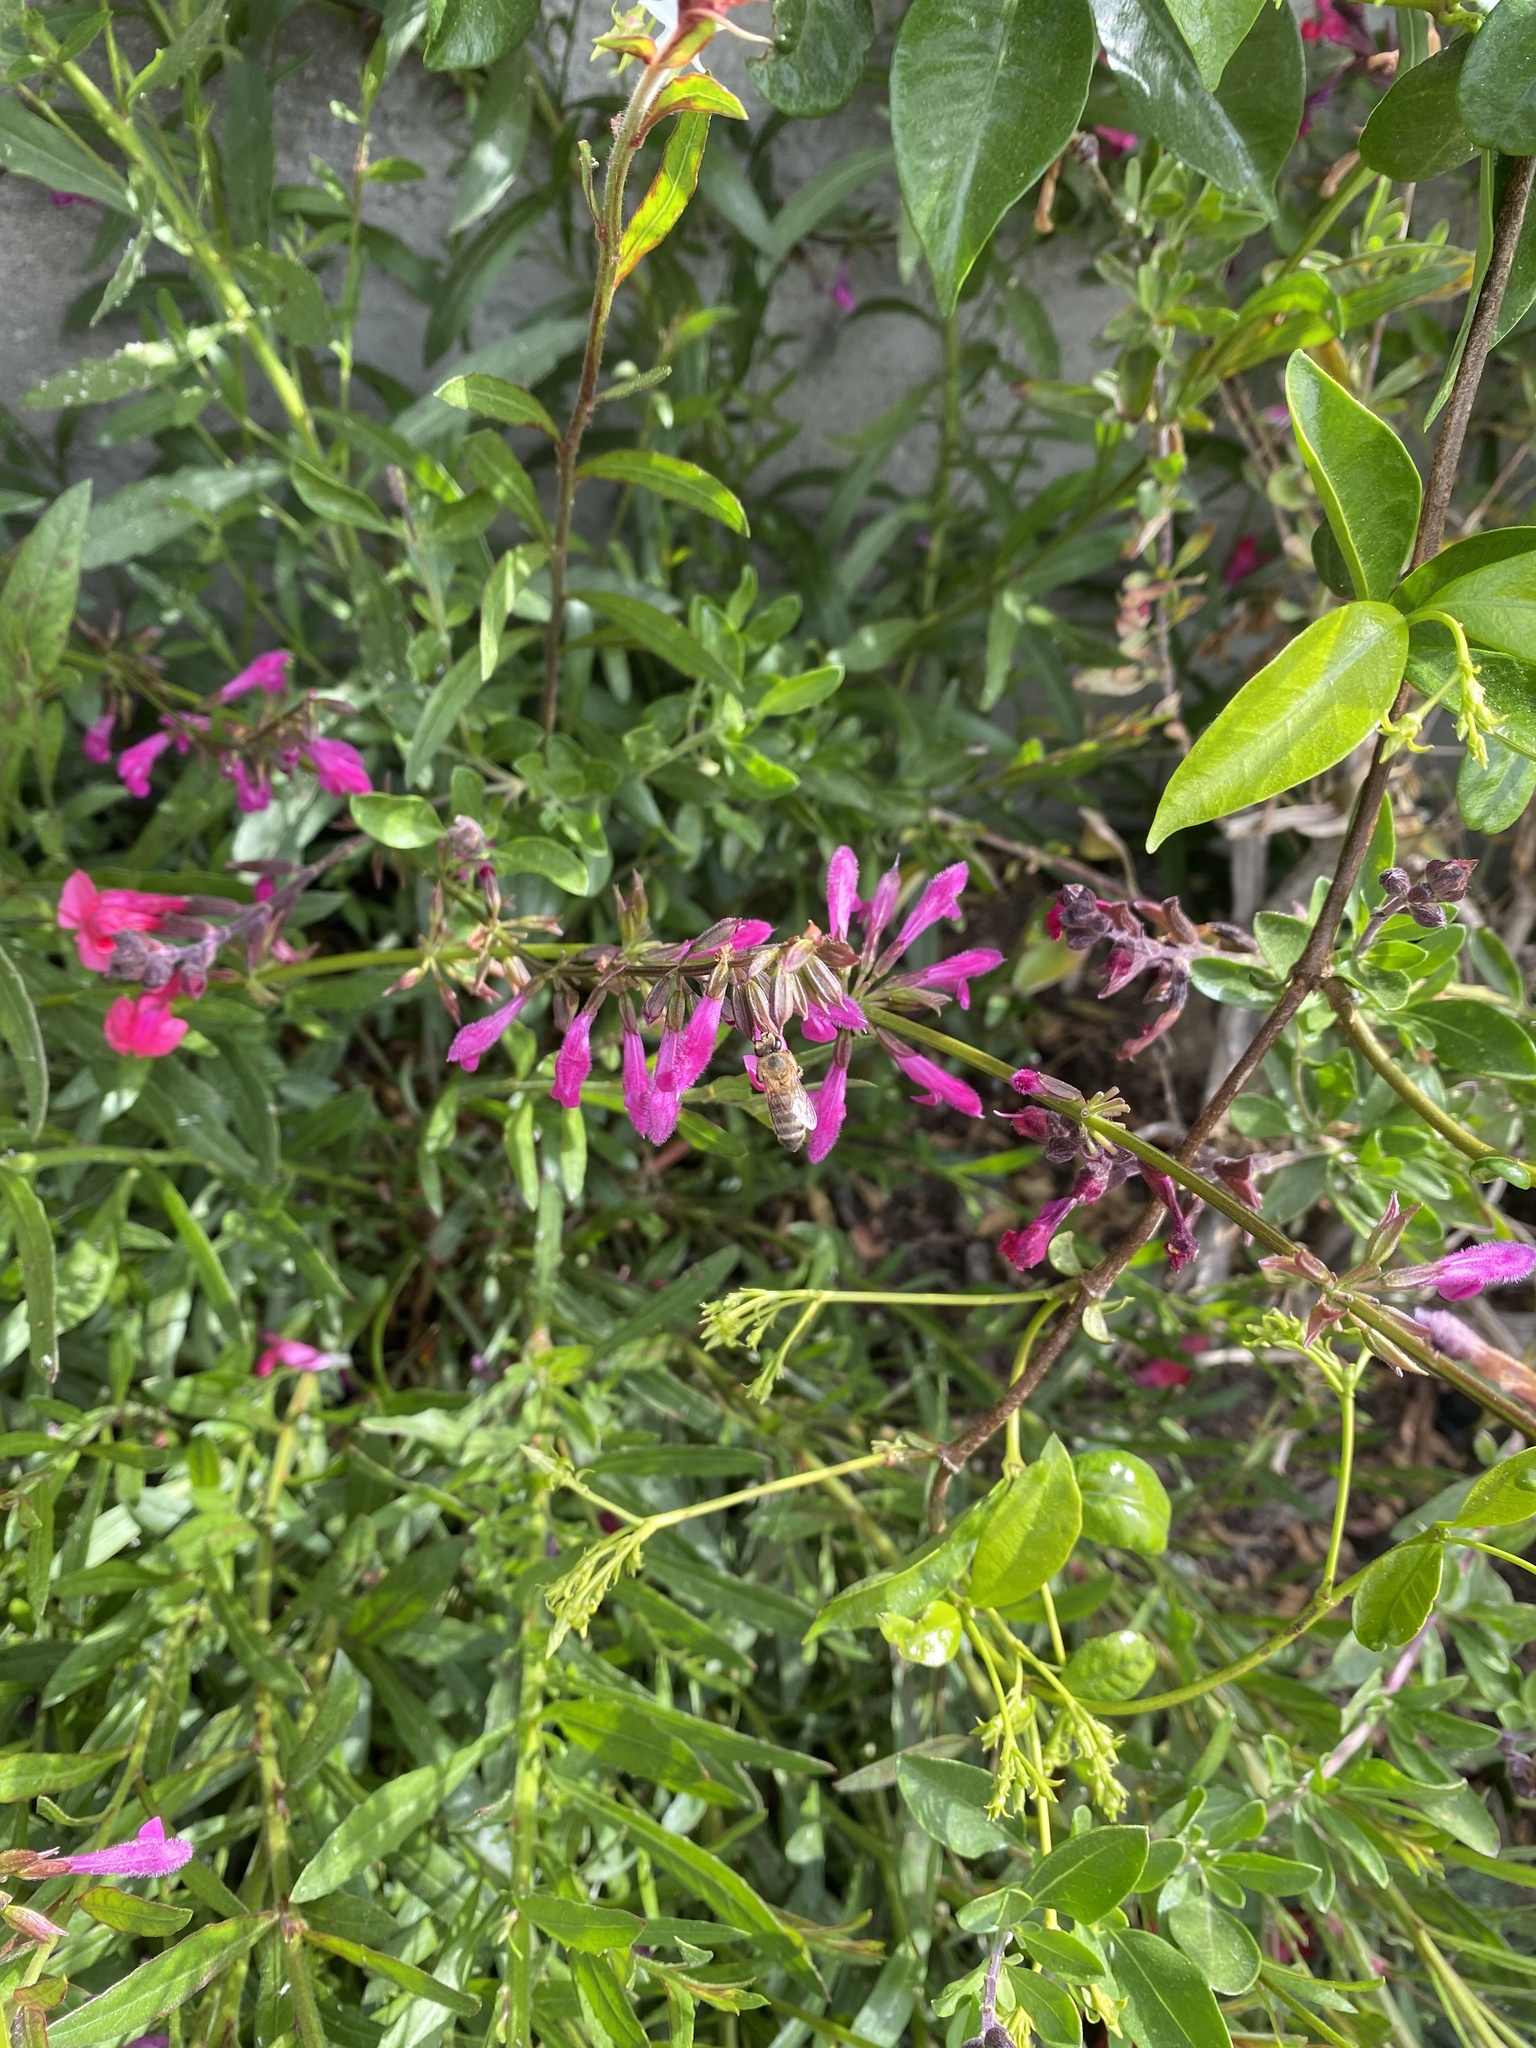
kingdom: Animalia
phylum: Arthropoda
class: Insecta
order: Hymenoptera
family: Apidae
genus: Apis
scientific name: Apis mellifera
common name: Honey bee
